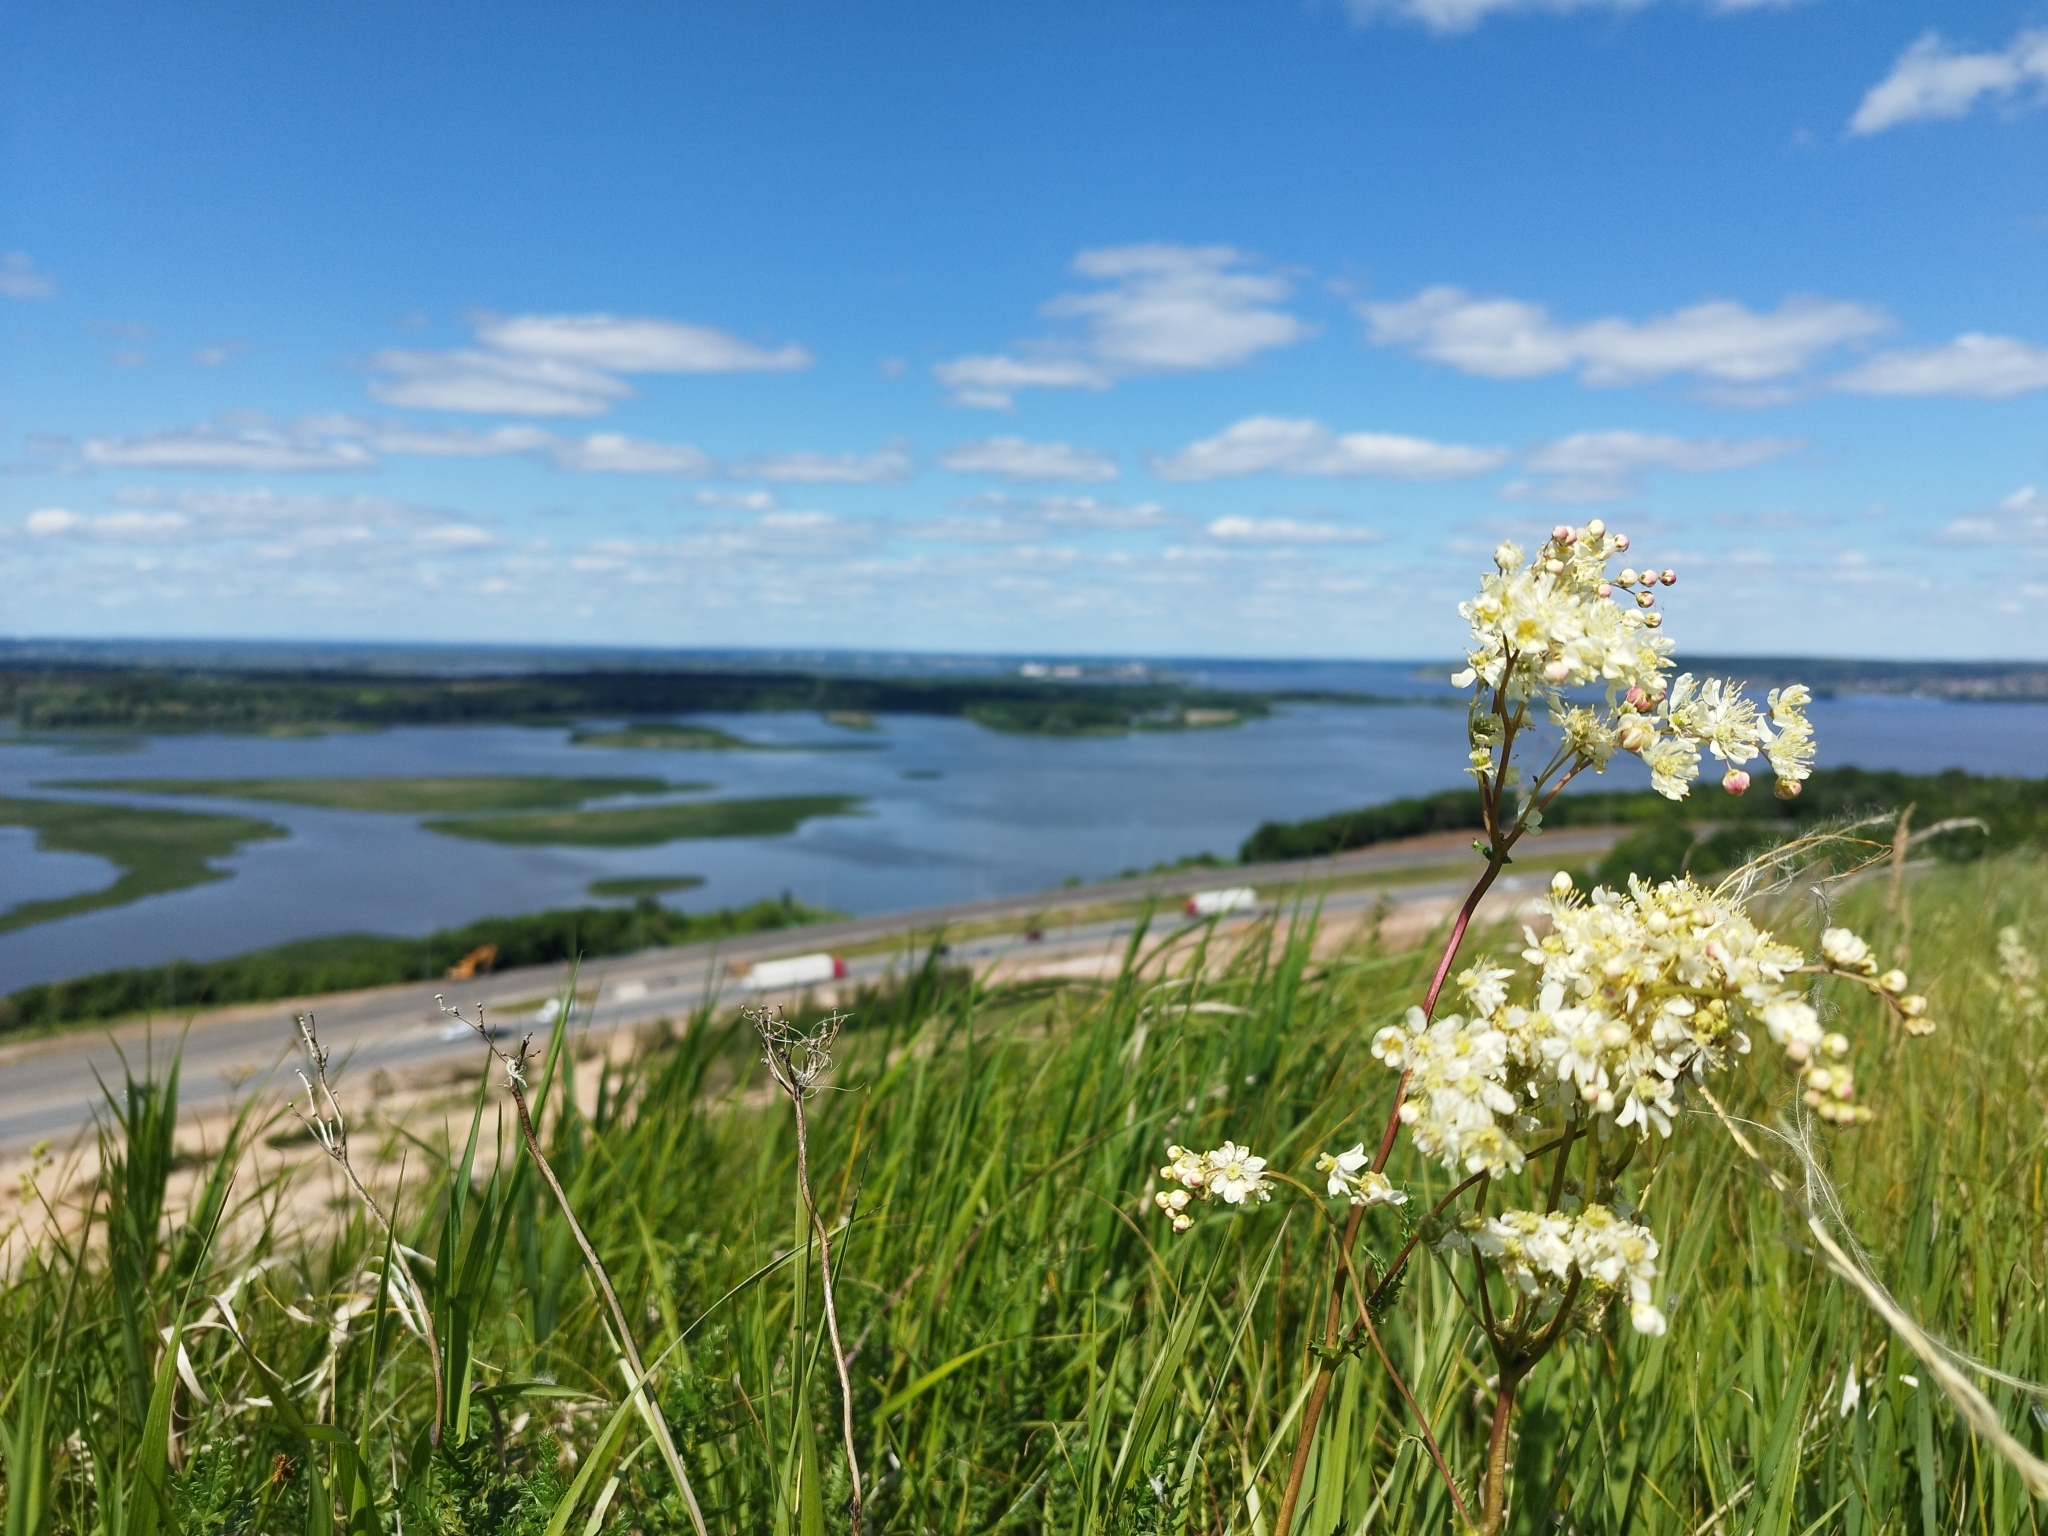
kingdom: Plantae
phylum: Tracheophyta
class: Magnoliopsida
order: Rosales
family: Rosaceae
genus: Filipendula
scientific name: Filipendula vulgaris
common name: Dropwort
